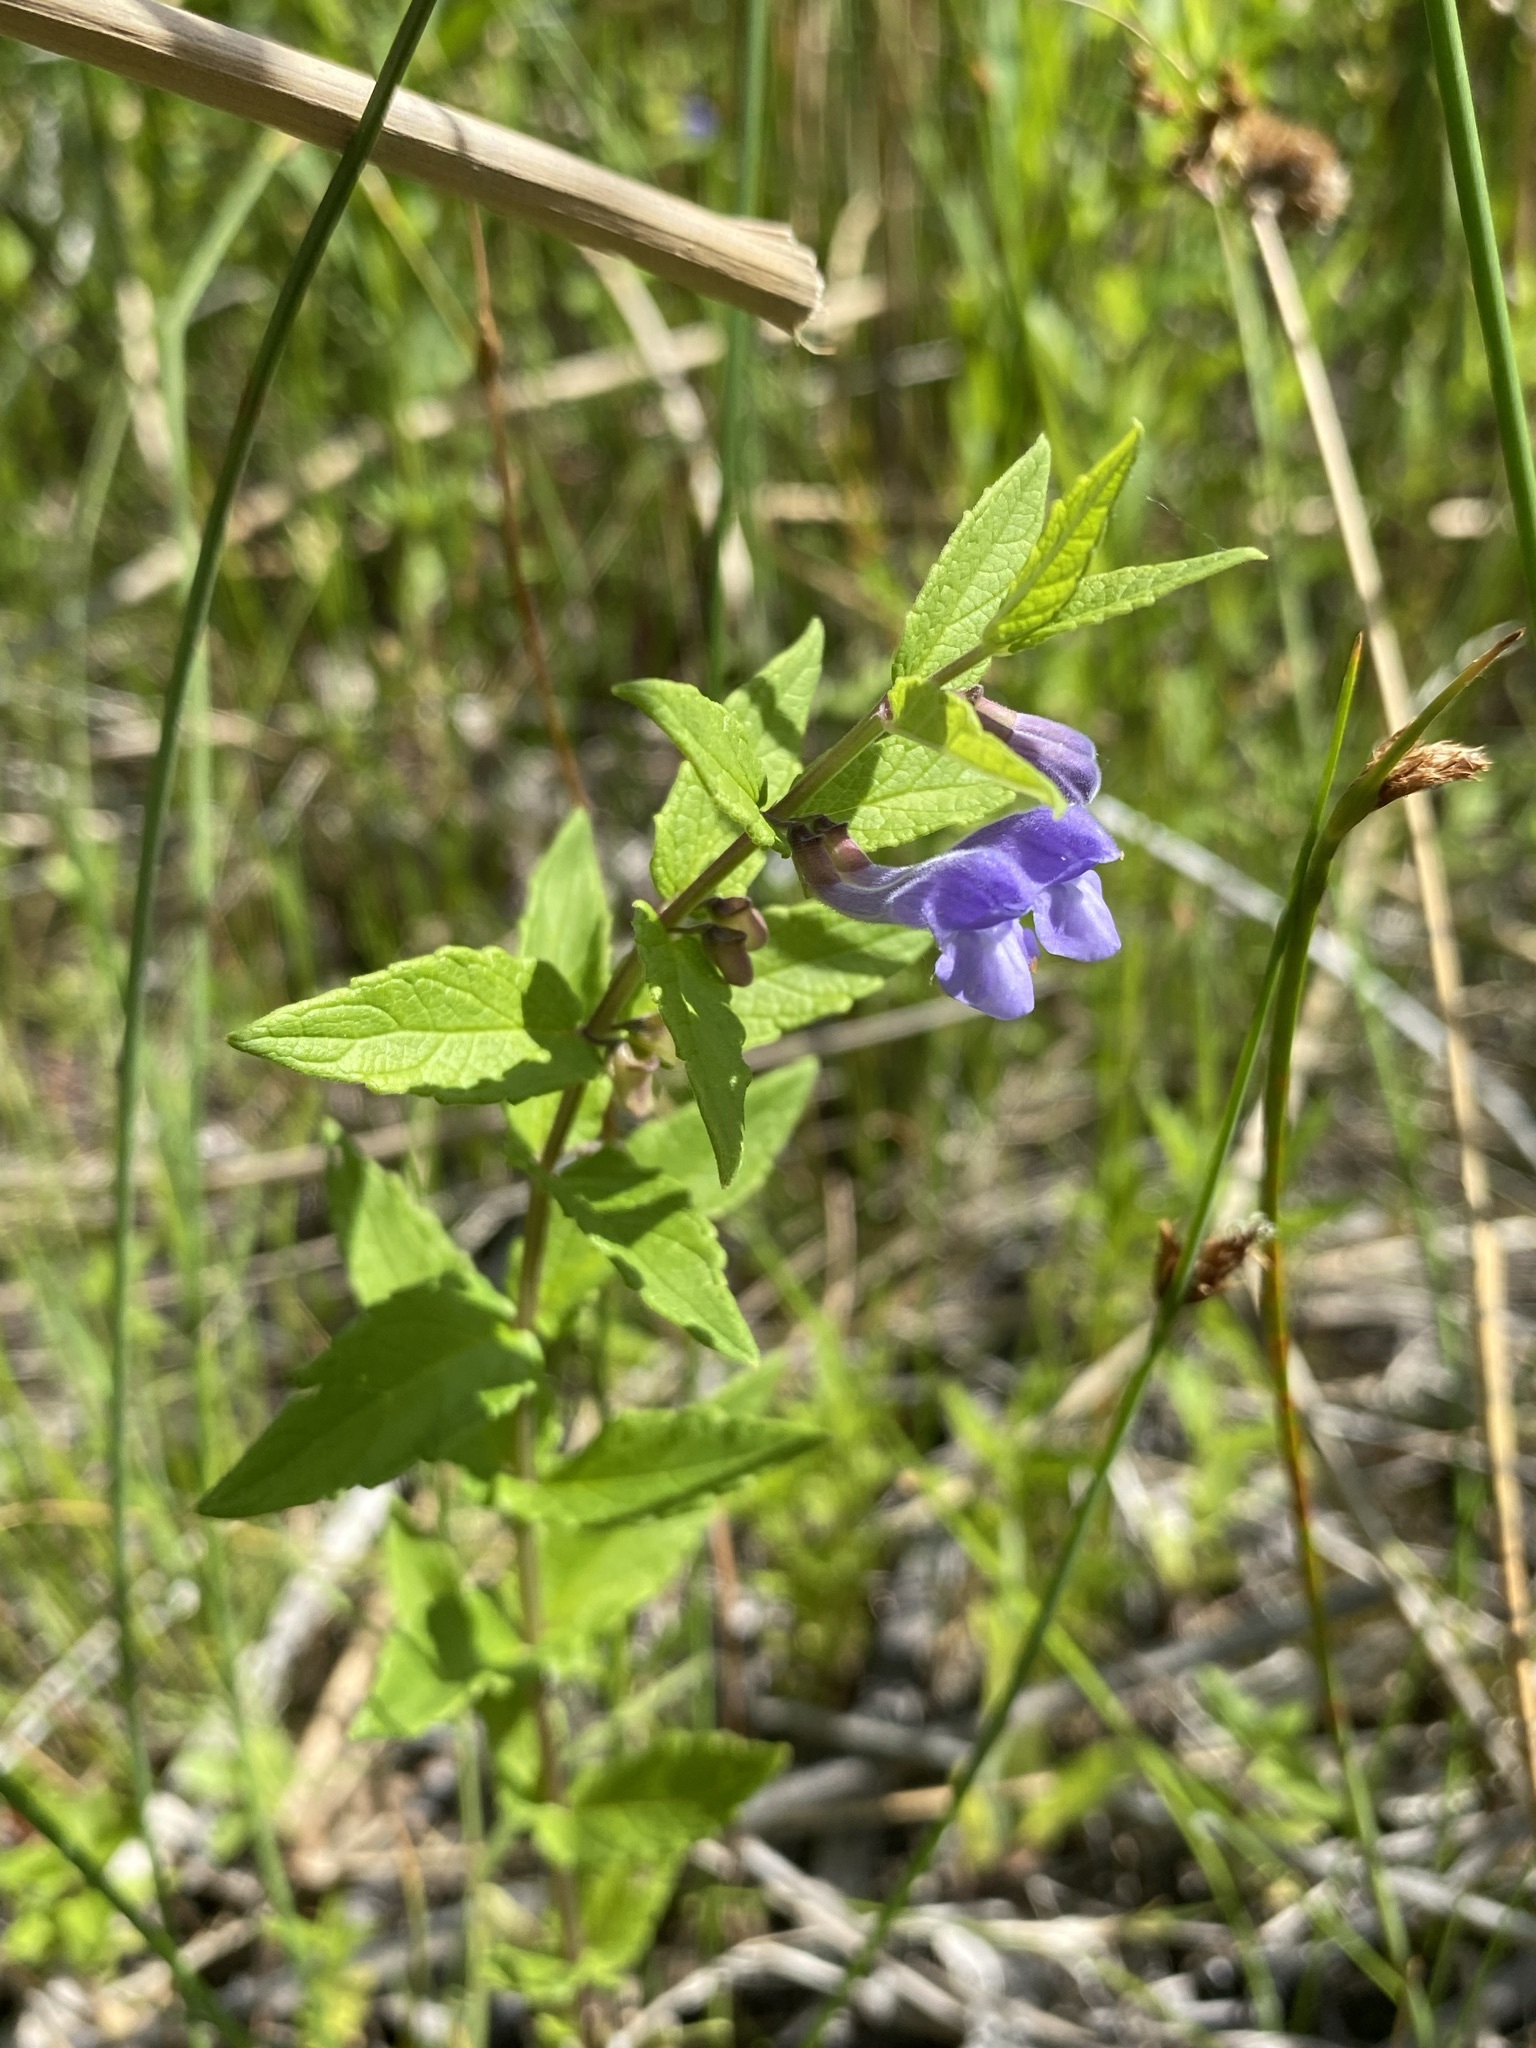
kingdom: Plantae
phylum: Tracheophyta
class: Magnoliopsida
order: Lamiales
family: Lamiaceae
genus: Scutellaria
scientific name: Scutellaria galericulata
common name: Skullcap
